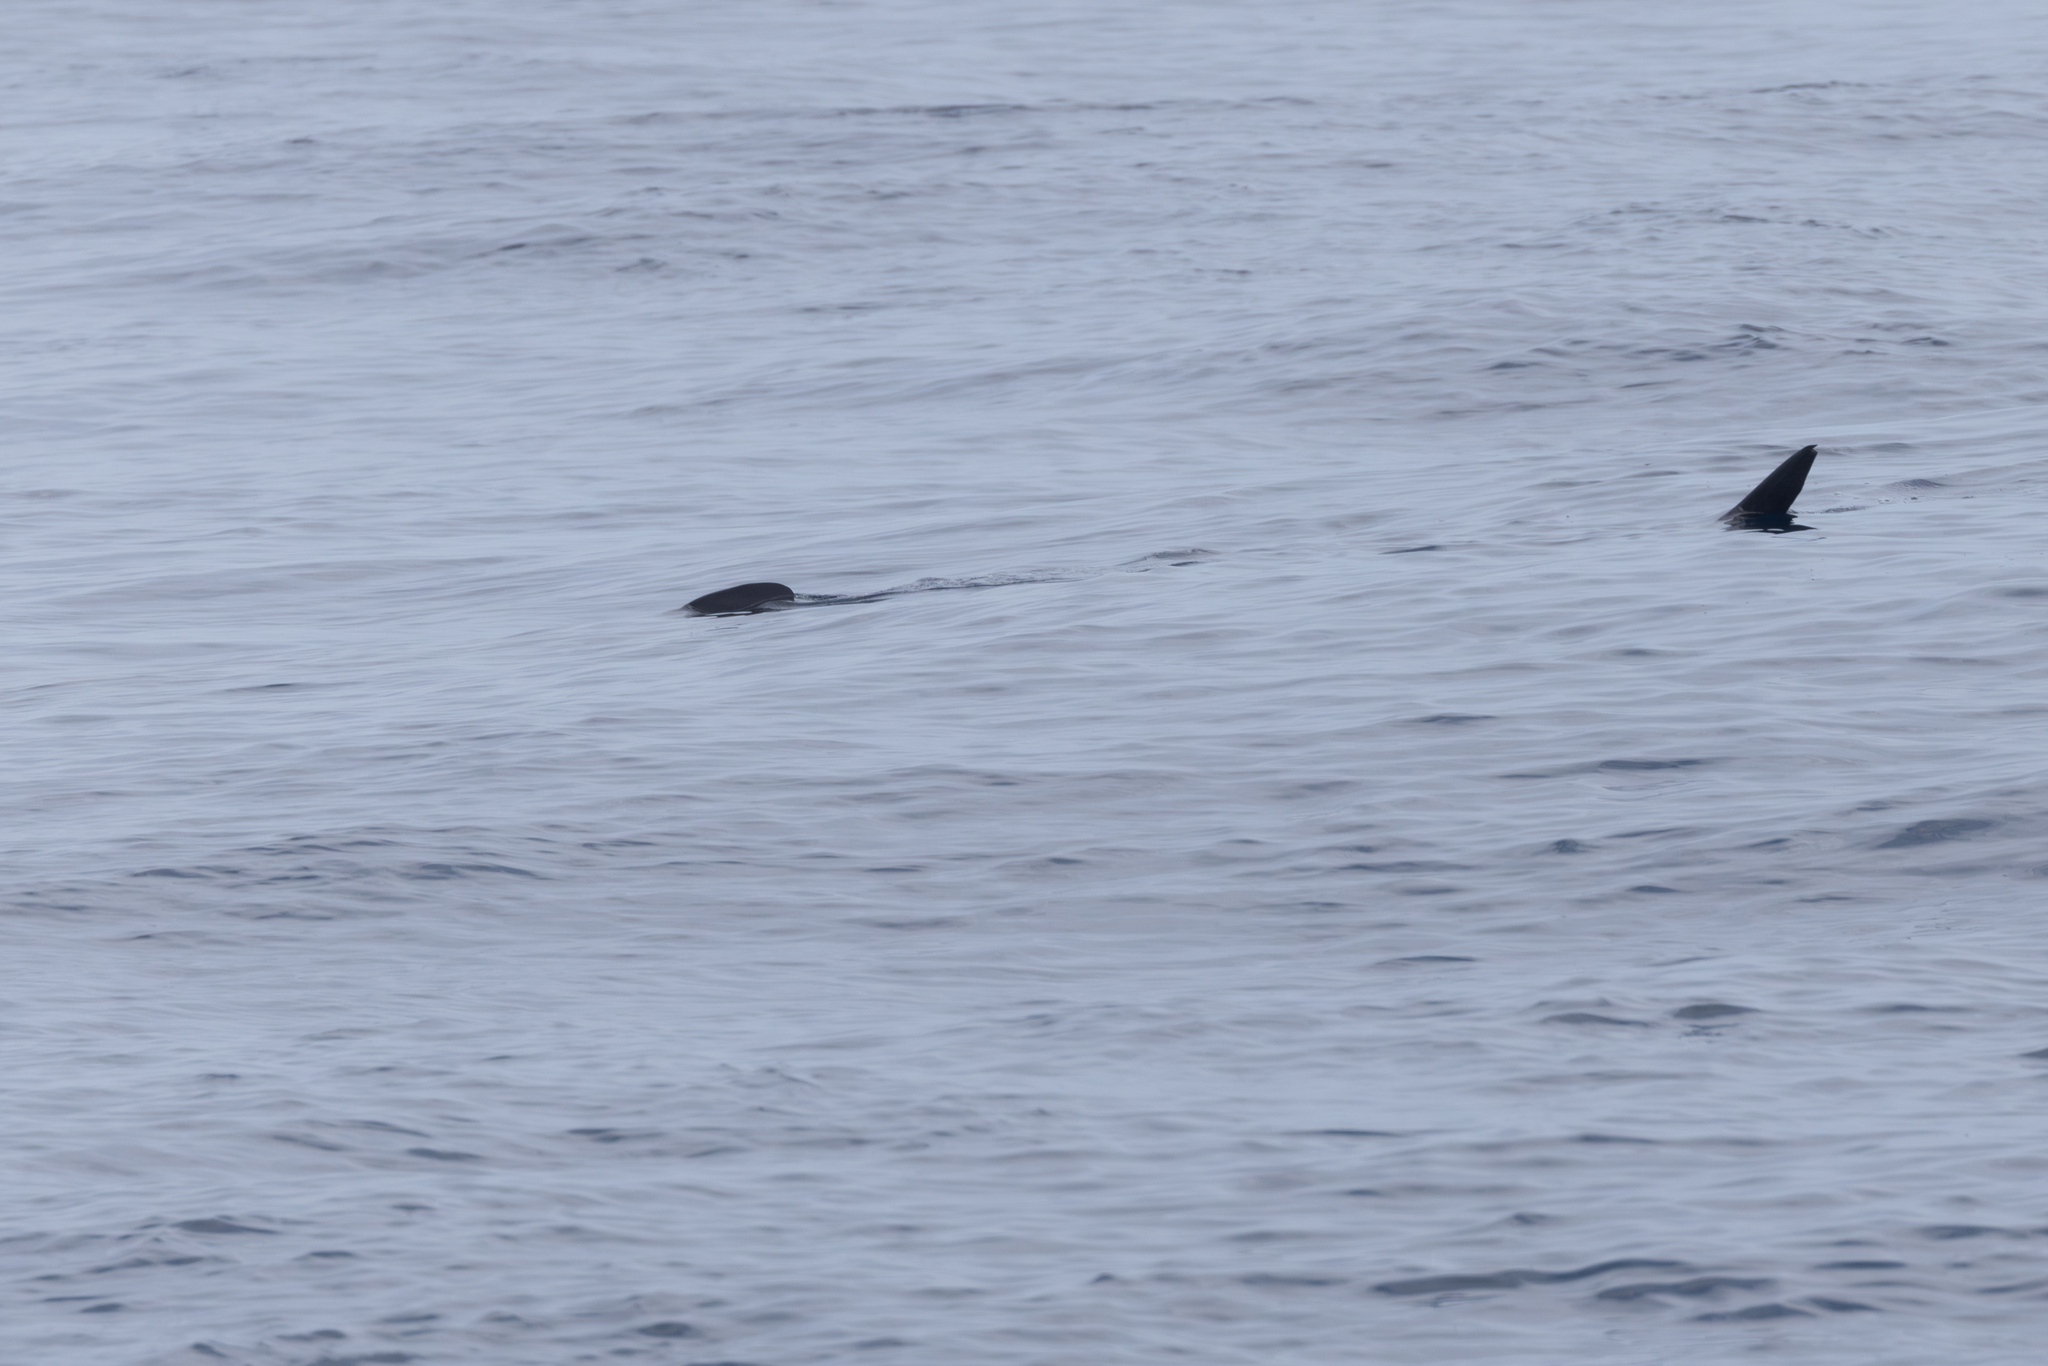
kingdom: Animalia
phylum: Chordata
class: Elasmobranchii
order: Orectolobiformes
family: Rhincodontidae
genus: Rhincodon
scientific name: Rhincodon typus
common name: Whale shark
